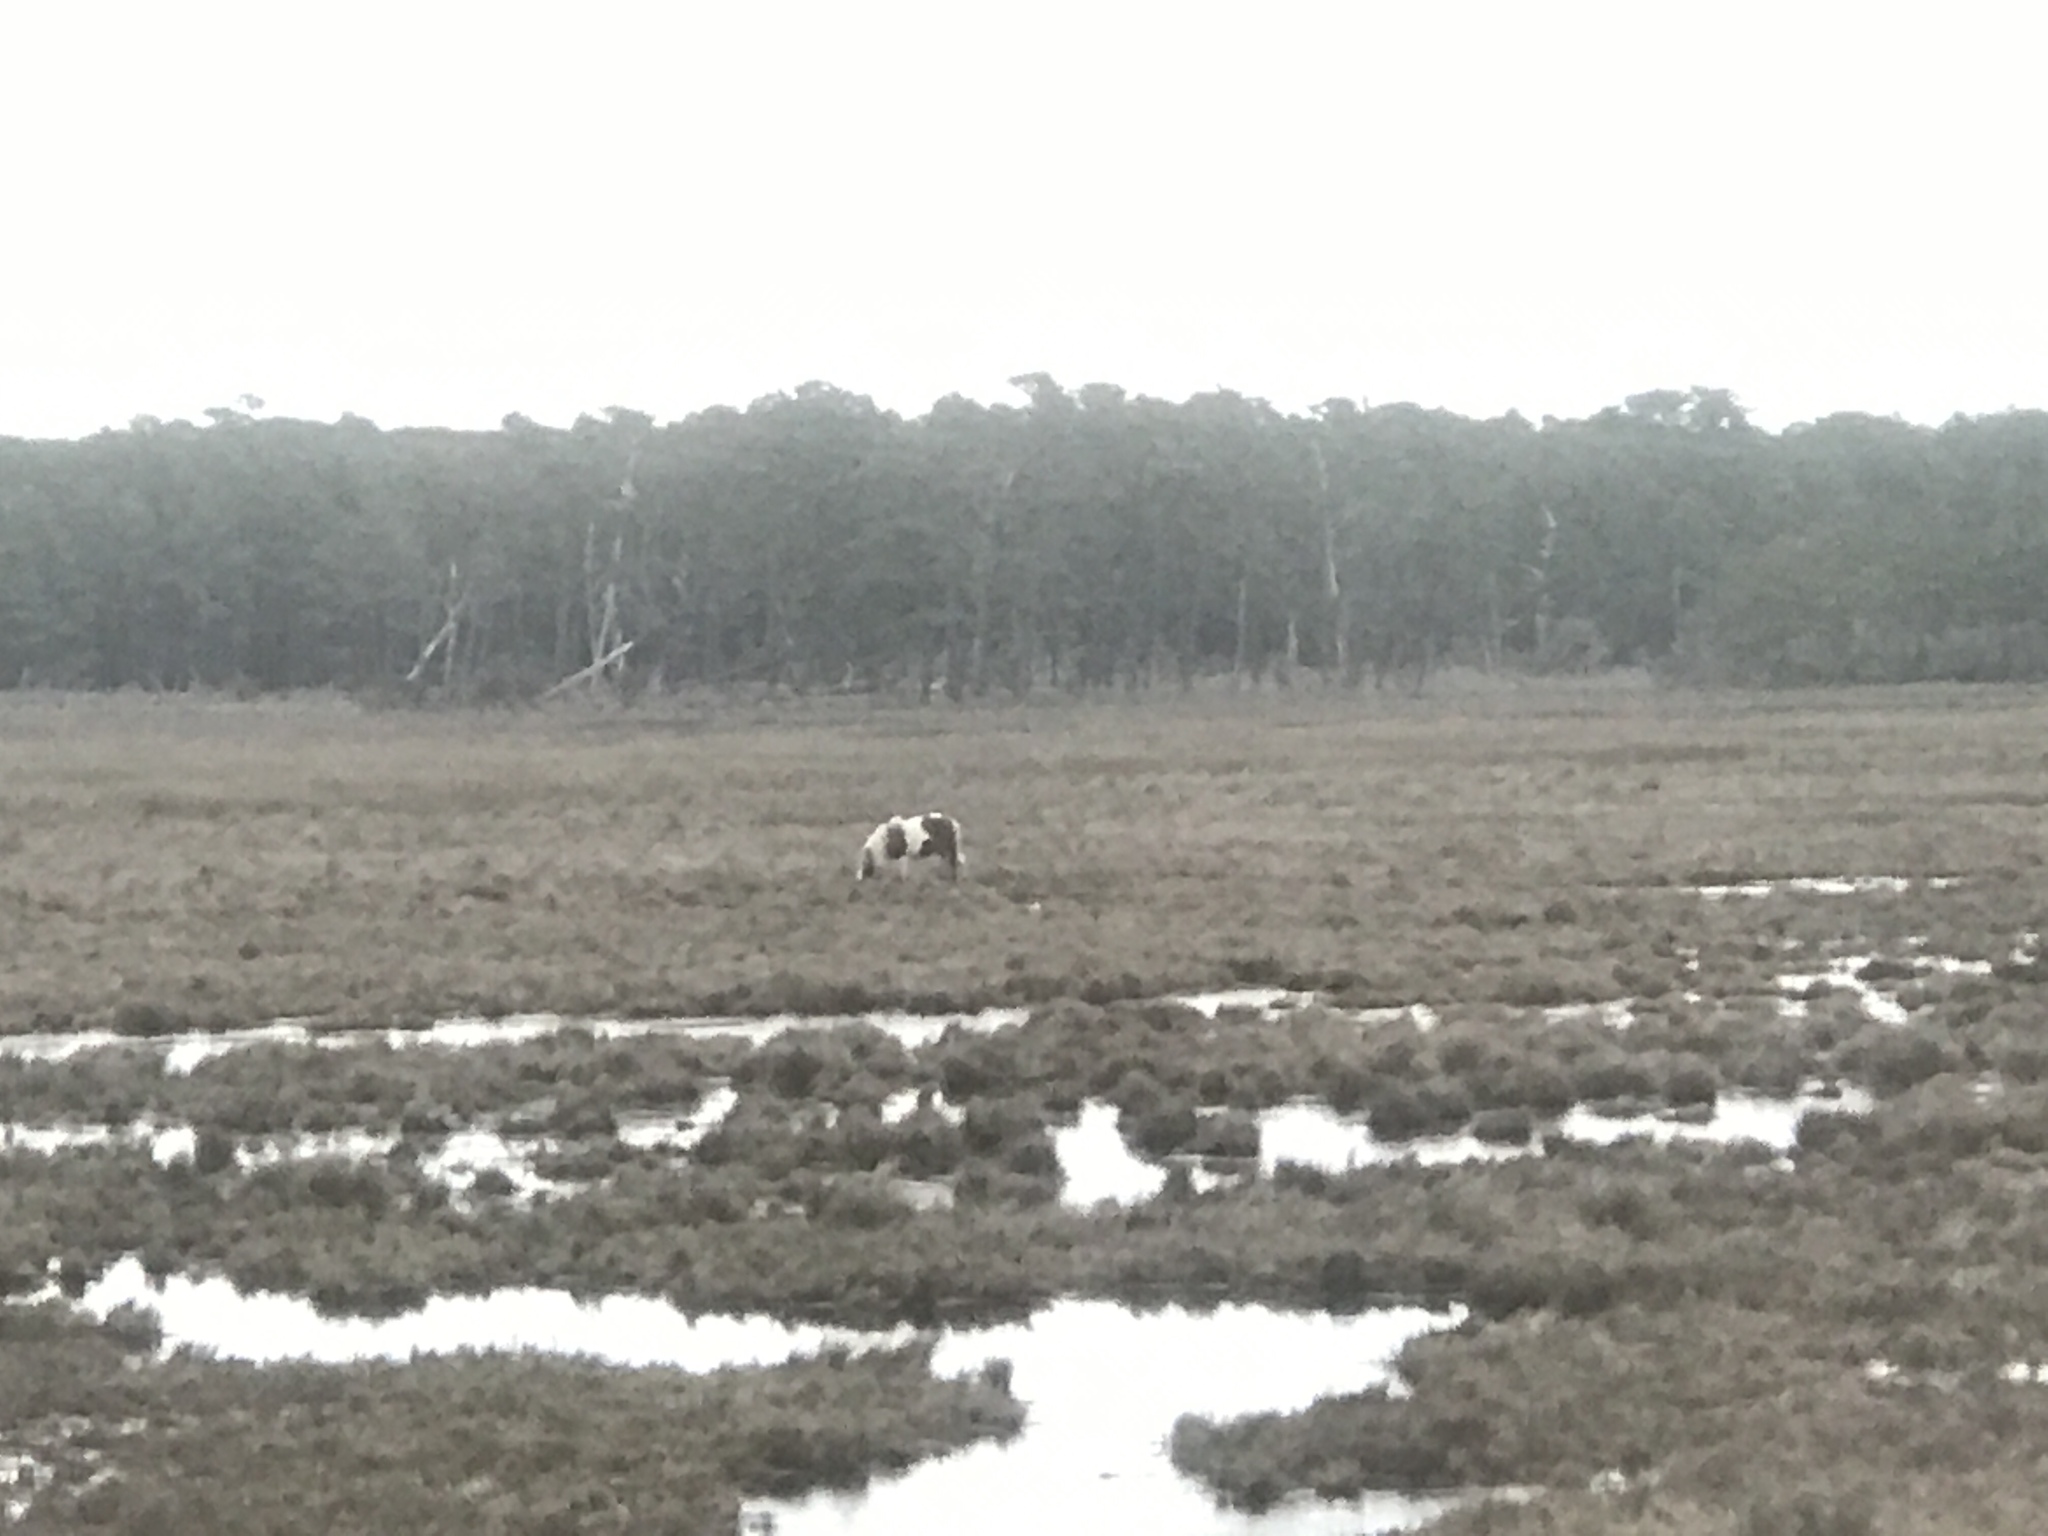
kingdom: Animalia
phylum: Chordata
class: Mammalia
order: Perissodactyla
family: Equidae
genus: Equus
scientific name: Equus caballus
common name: Horse
